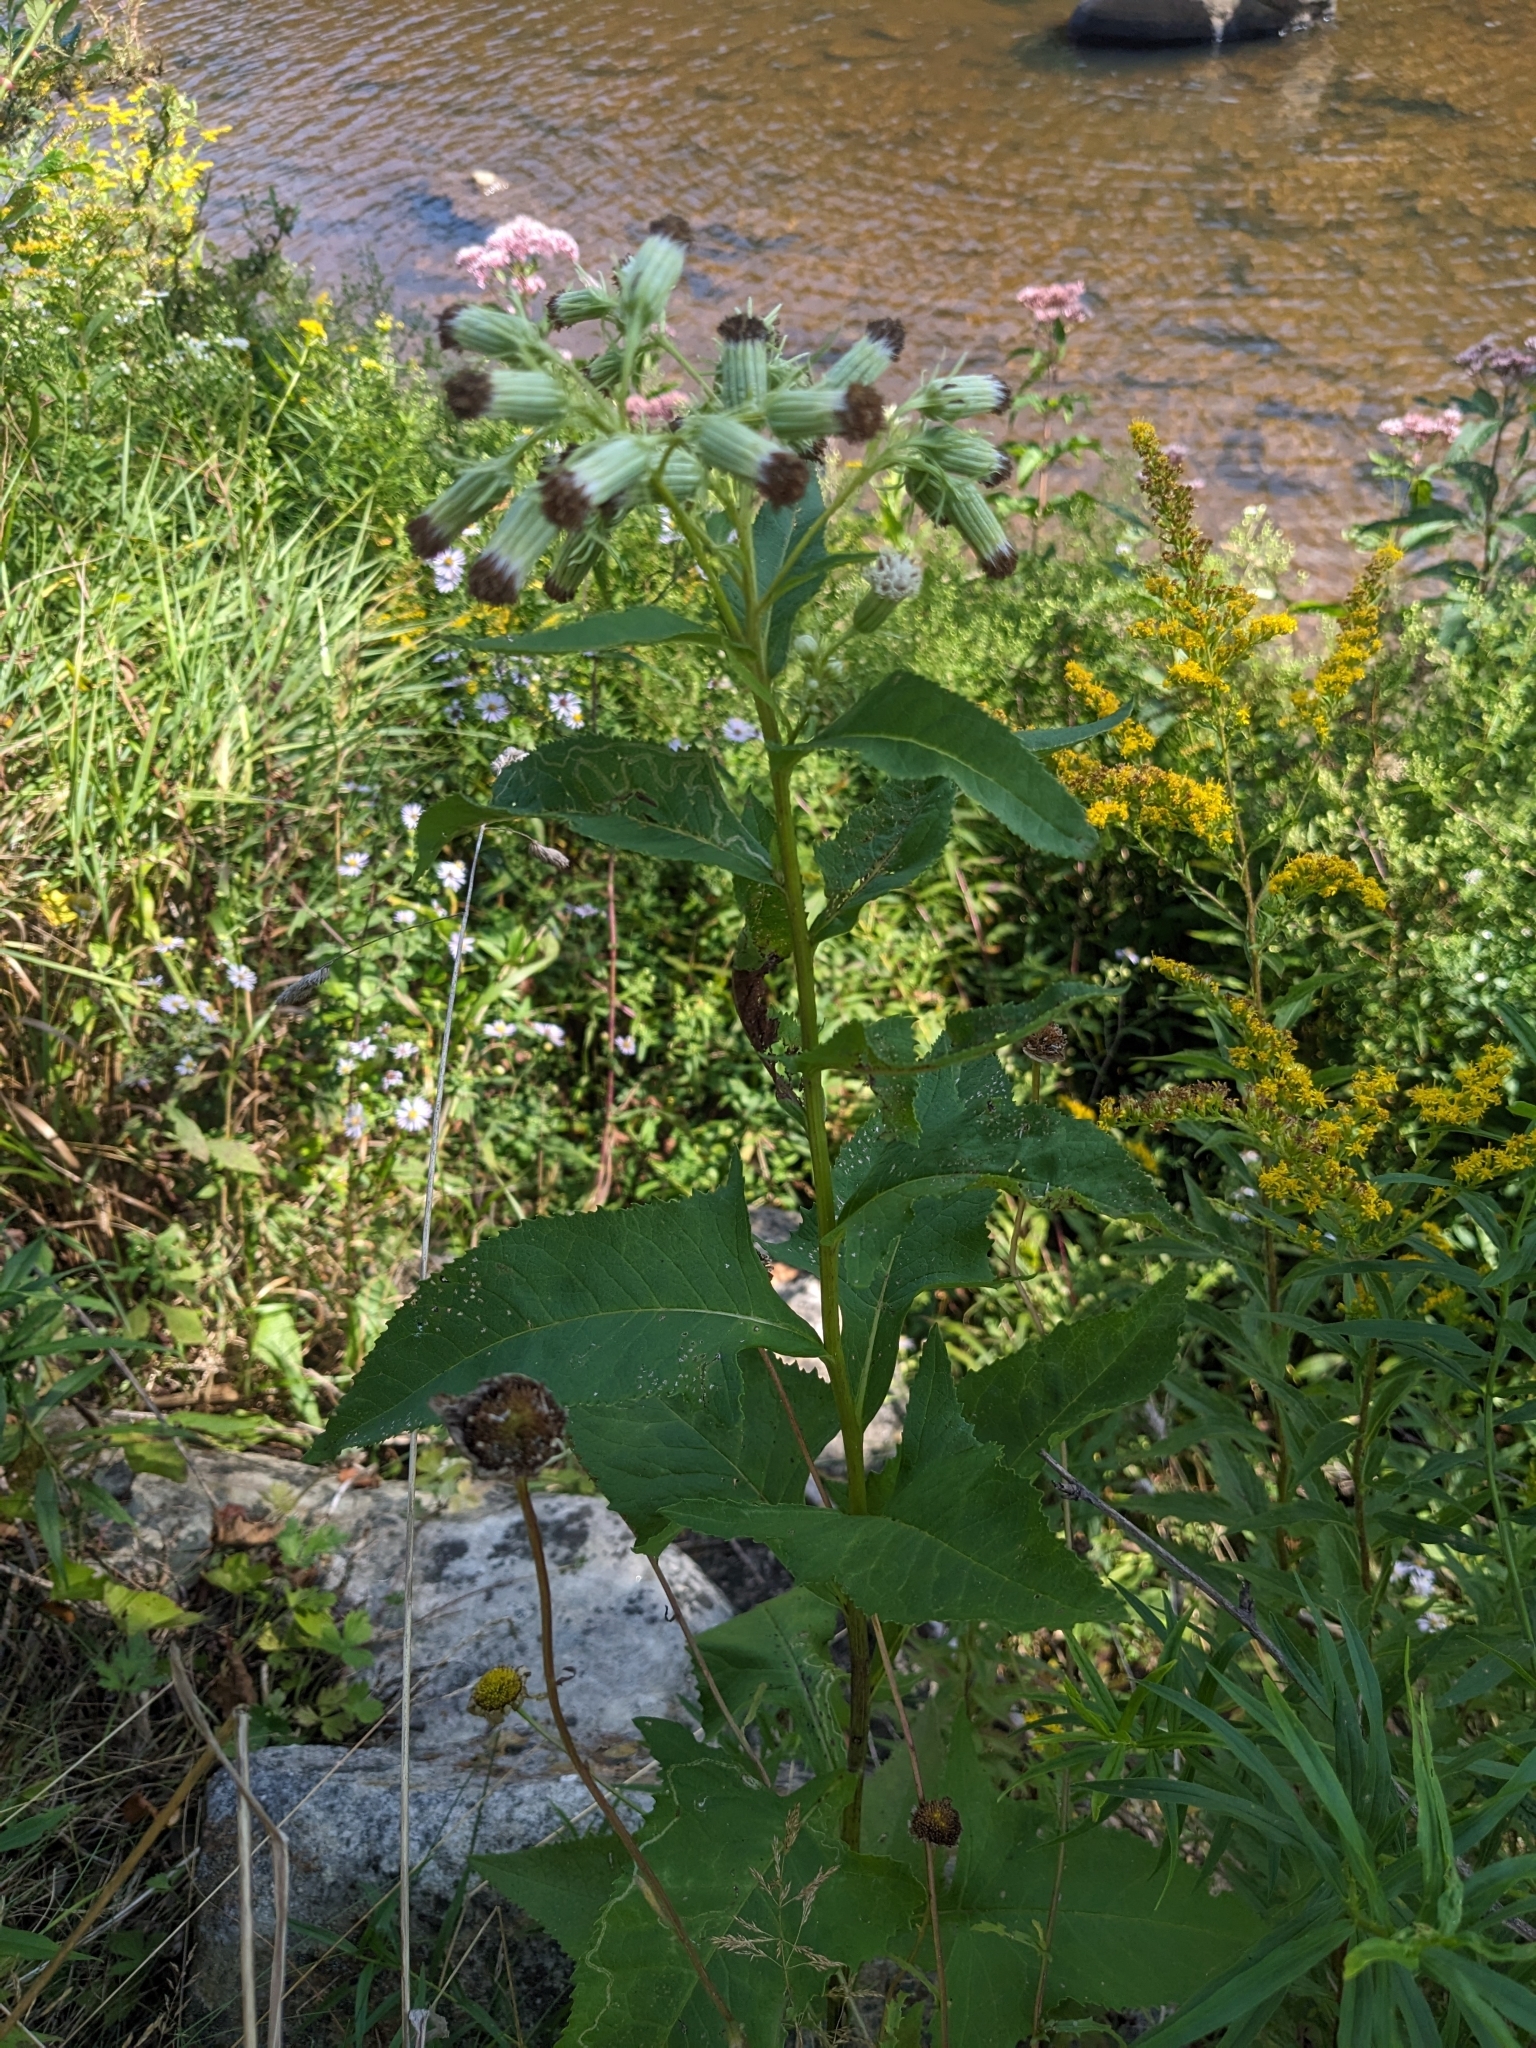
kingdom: Plantae
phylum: Tracheophyta
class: Magnoliopsida
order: Asterales
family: Asteraceae
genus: Hasteola
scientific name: Hasteola suaveolens
